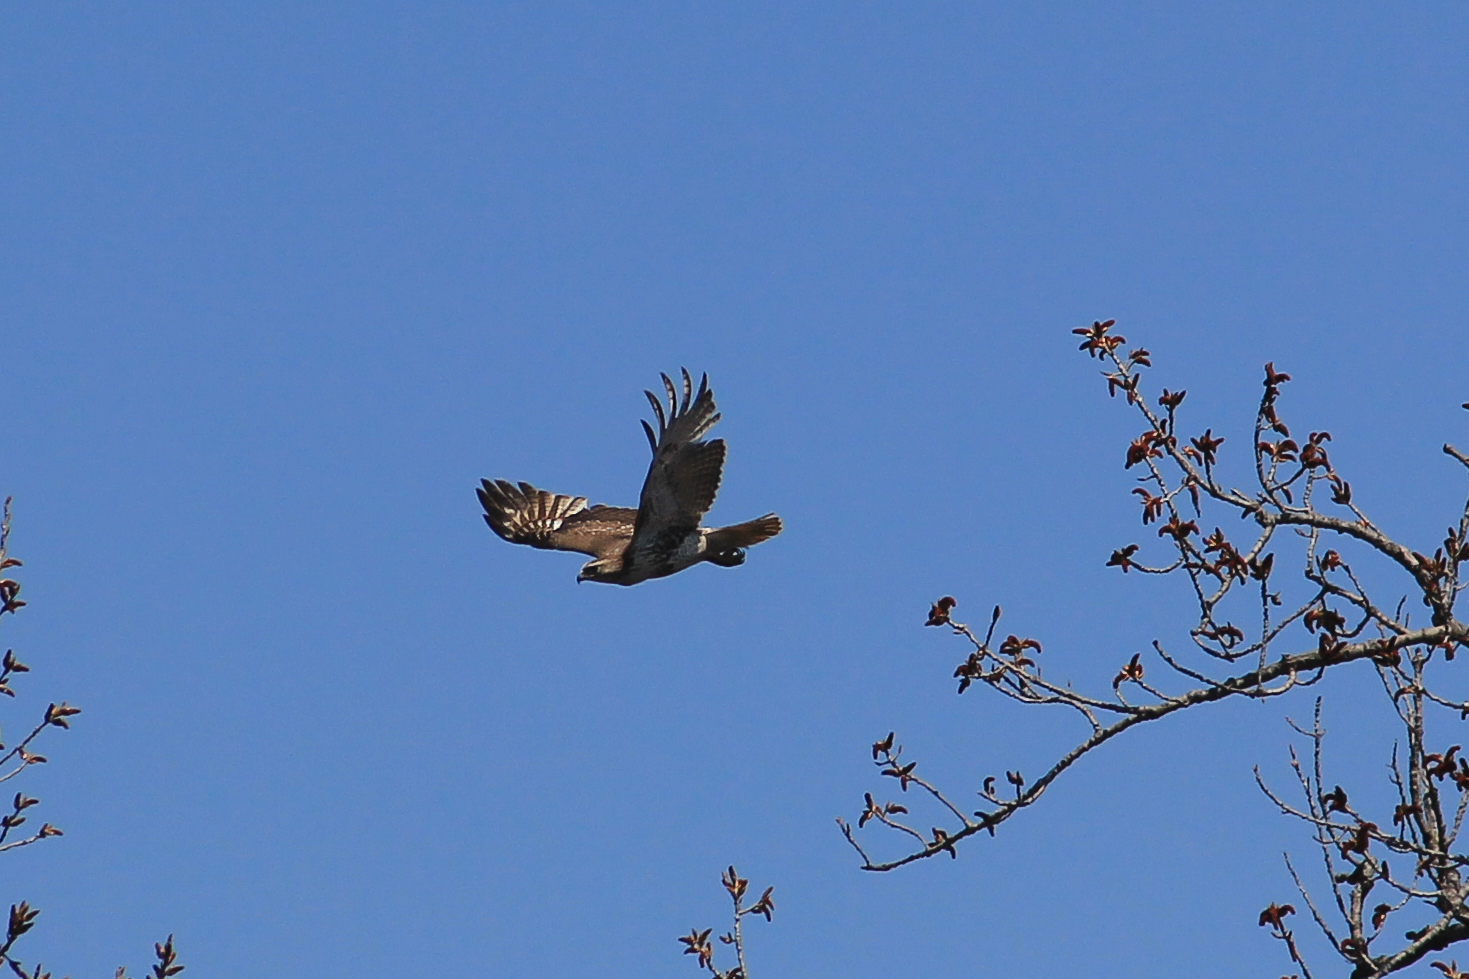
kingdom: Animalia
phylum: Chordata
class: Aves
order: Accipitriformes
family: Accipitridae
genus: Buteo
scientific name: Buteo jamaicensis
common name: Red-tailed hawk
